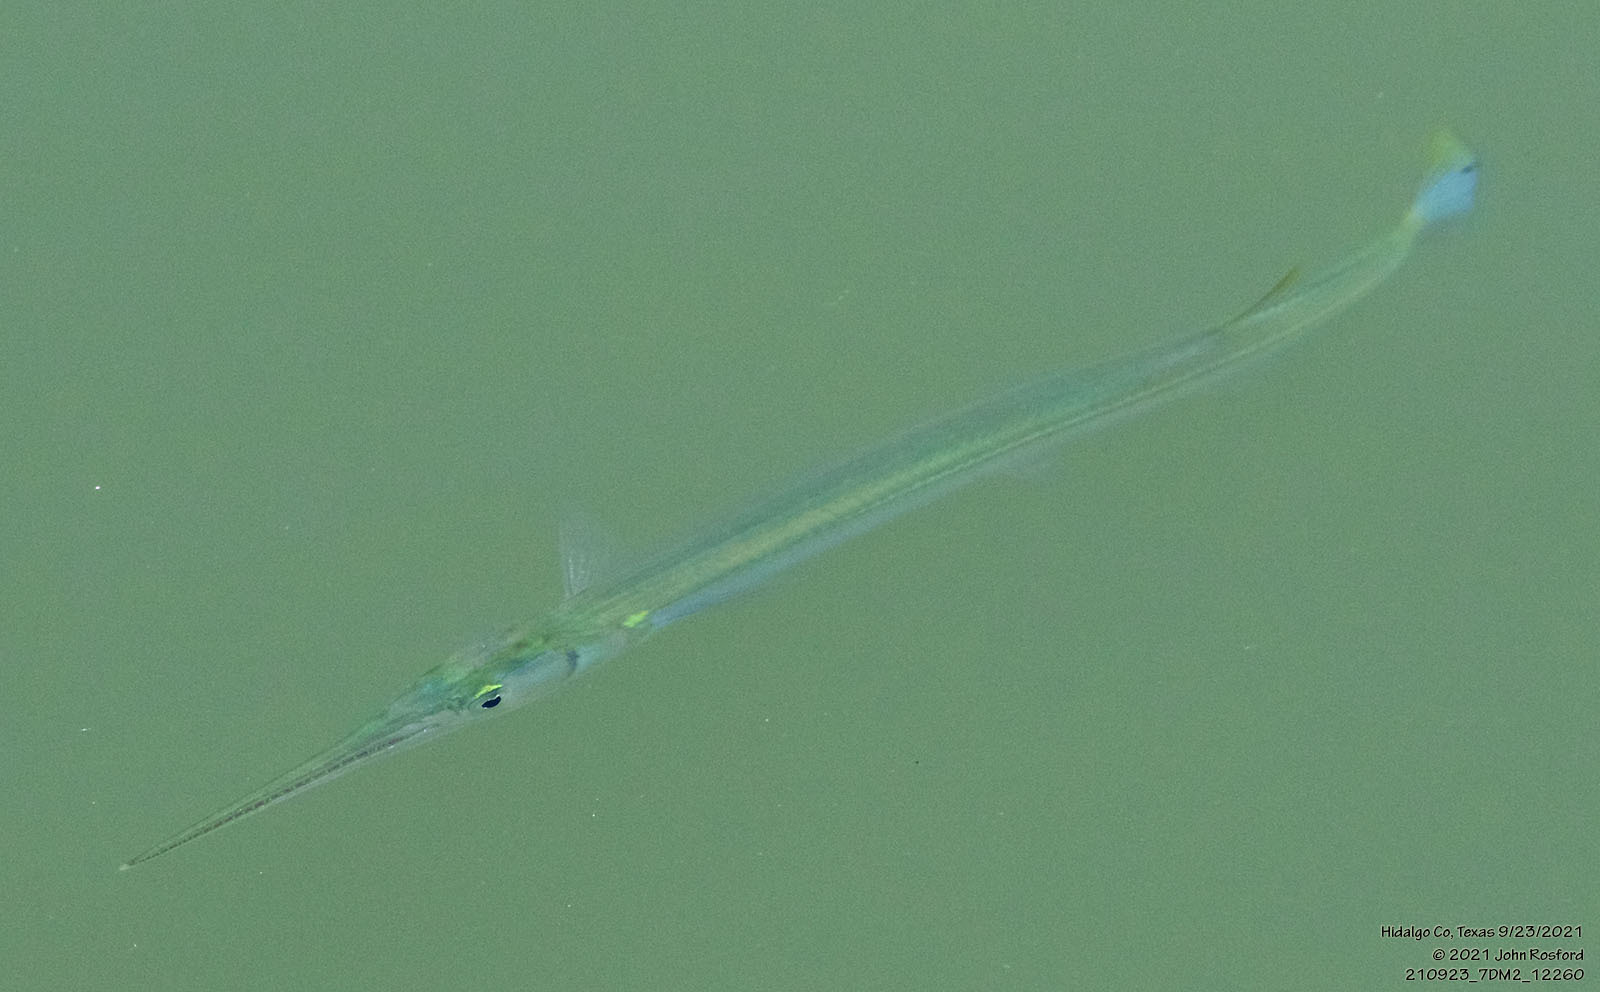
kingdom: Animalia
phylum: Chordata
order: Beloniformes
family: Belonidae
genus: Strongylura
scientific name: Strongylura marina
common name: Atlantic needlefish
